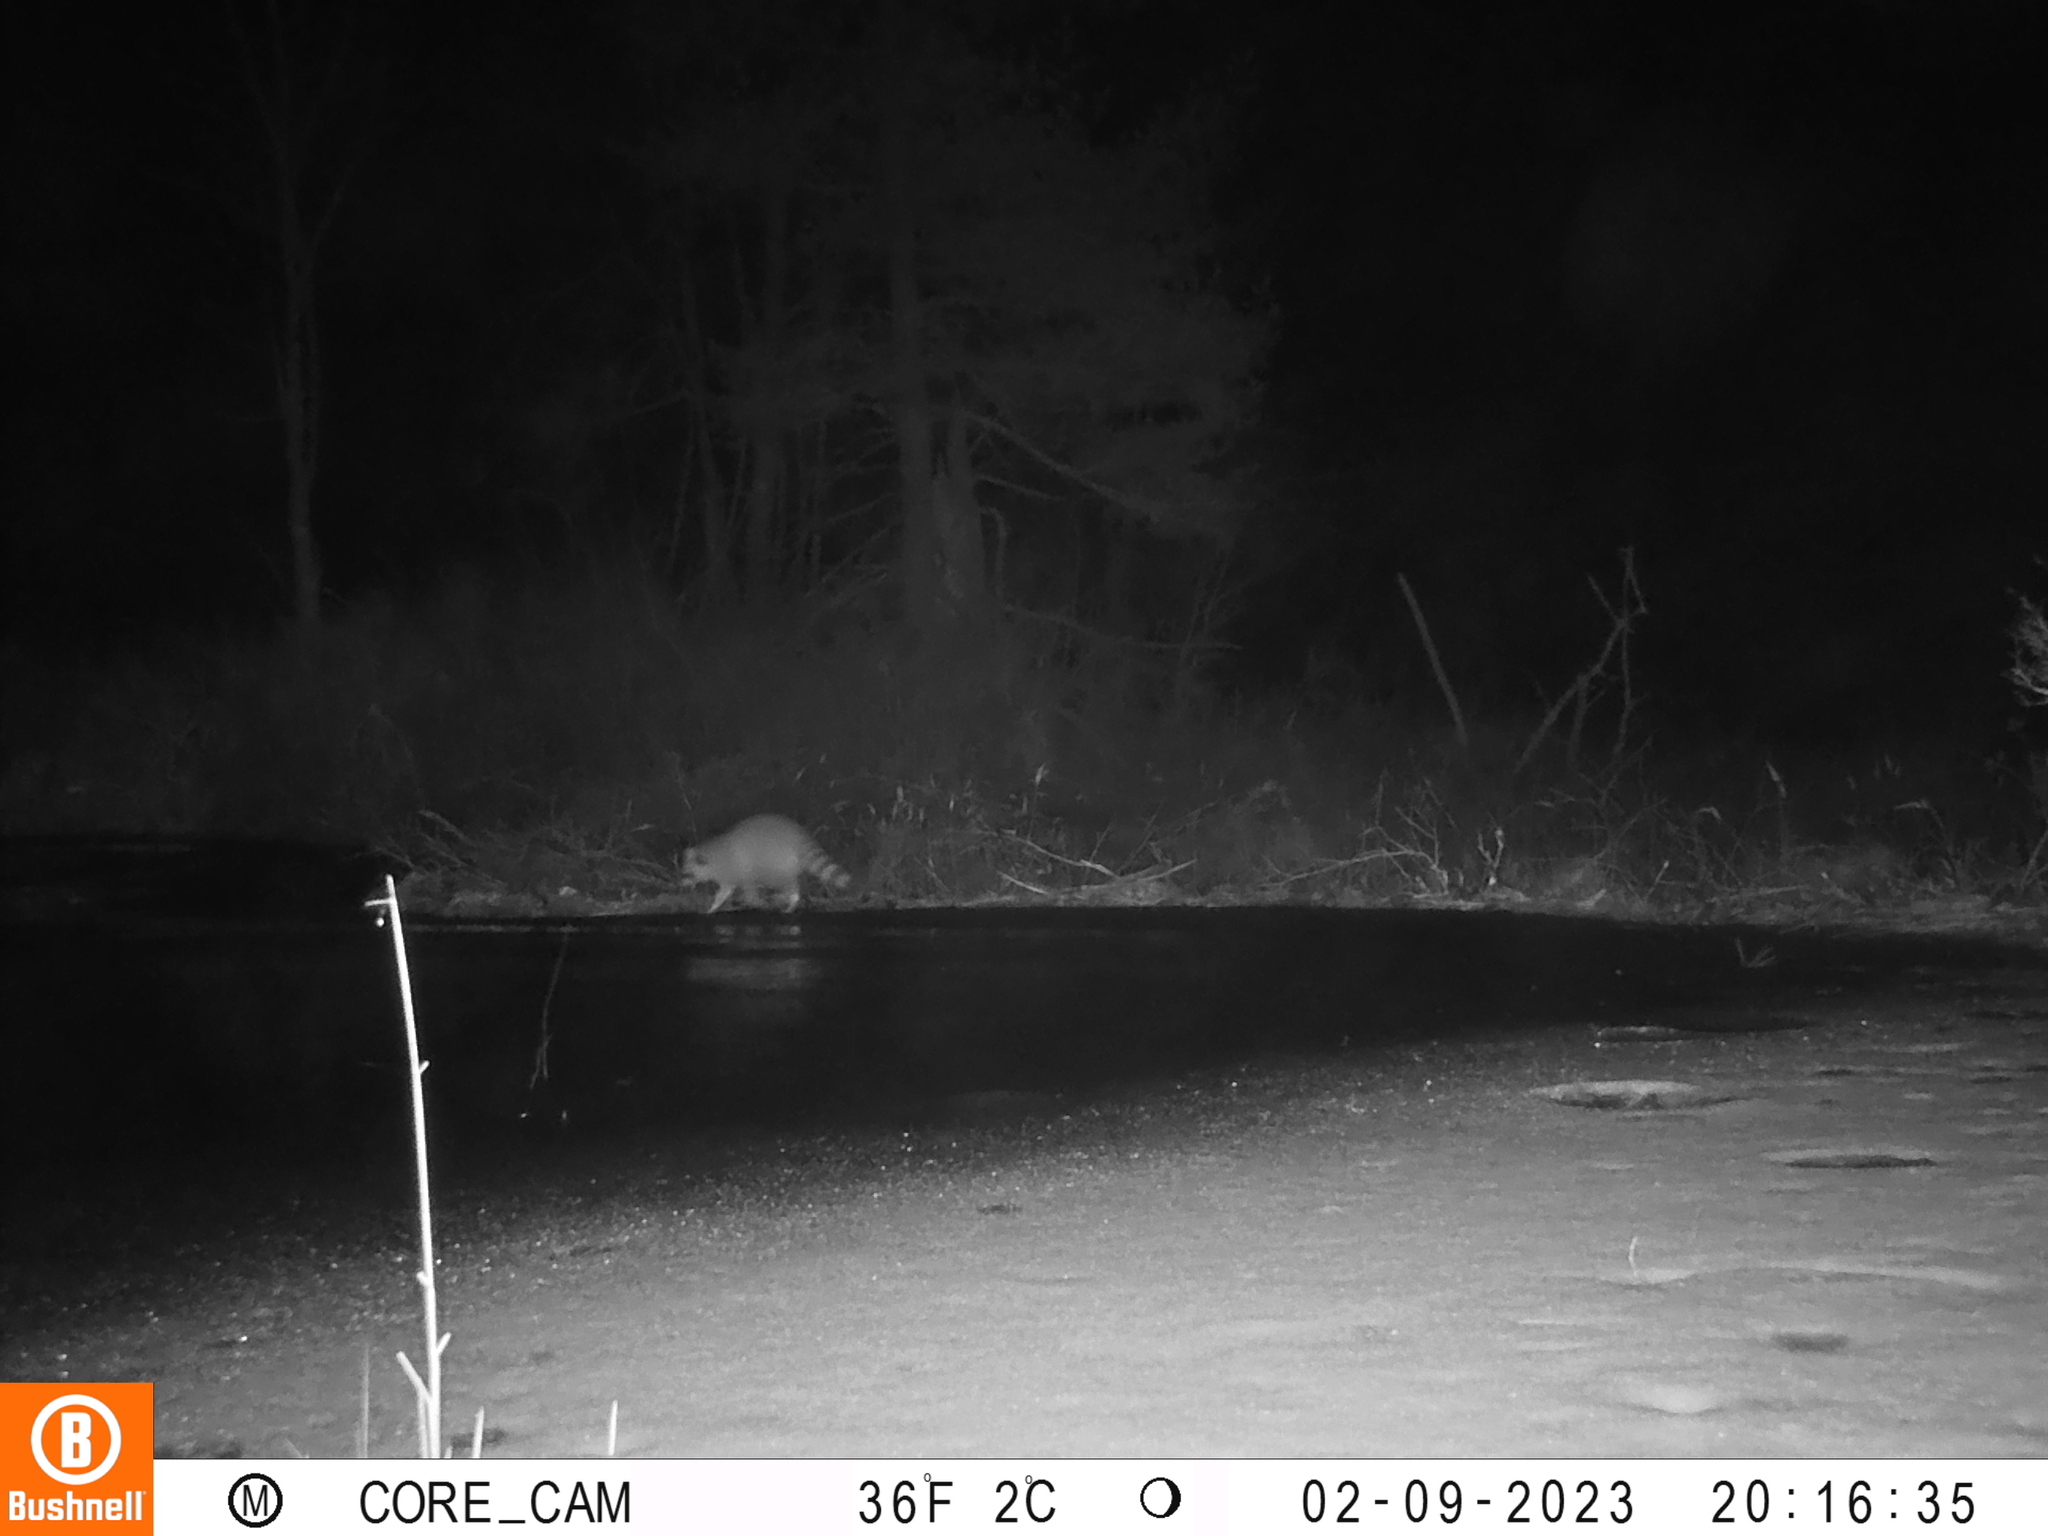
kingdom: Animalia
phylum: Chordata
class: Mammalia
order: Carnivora
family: Procyonidae
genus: Procyon
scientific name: Procyon lotor
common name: Raccoon
